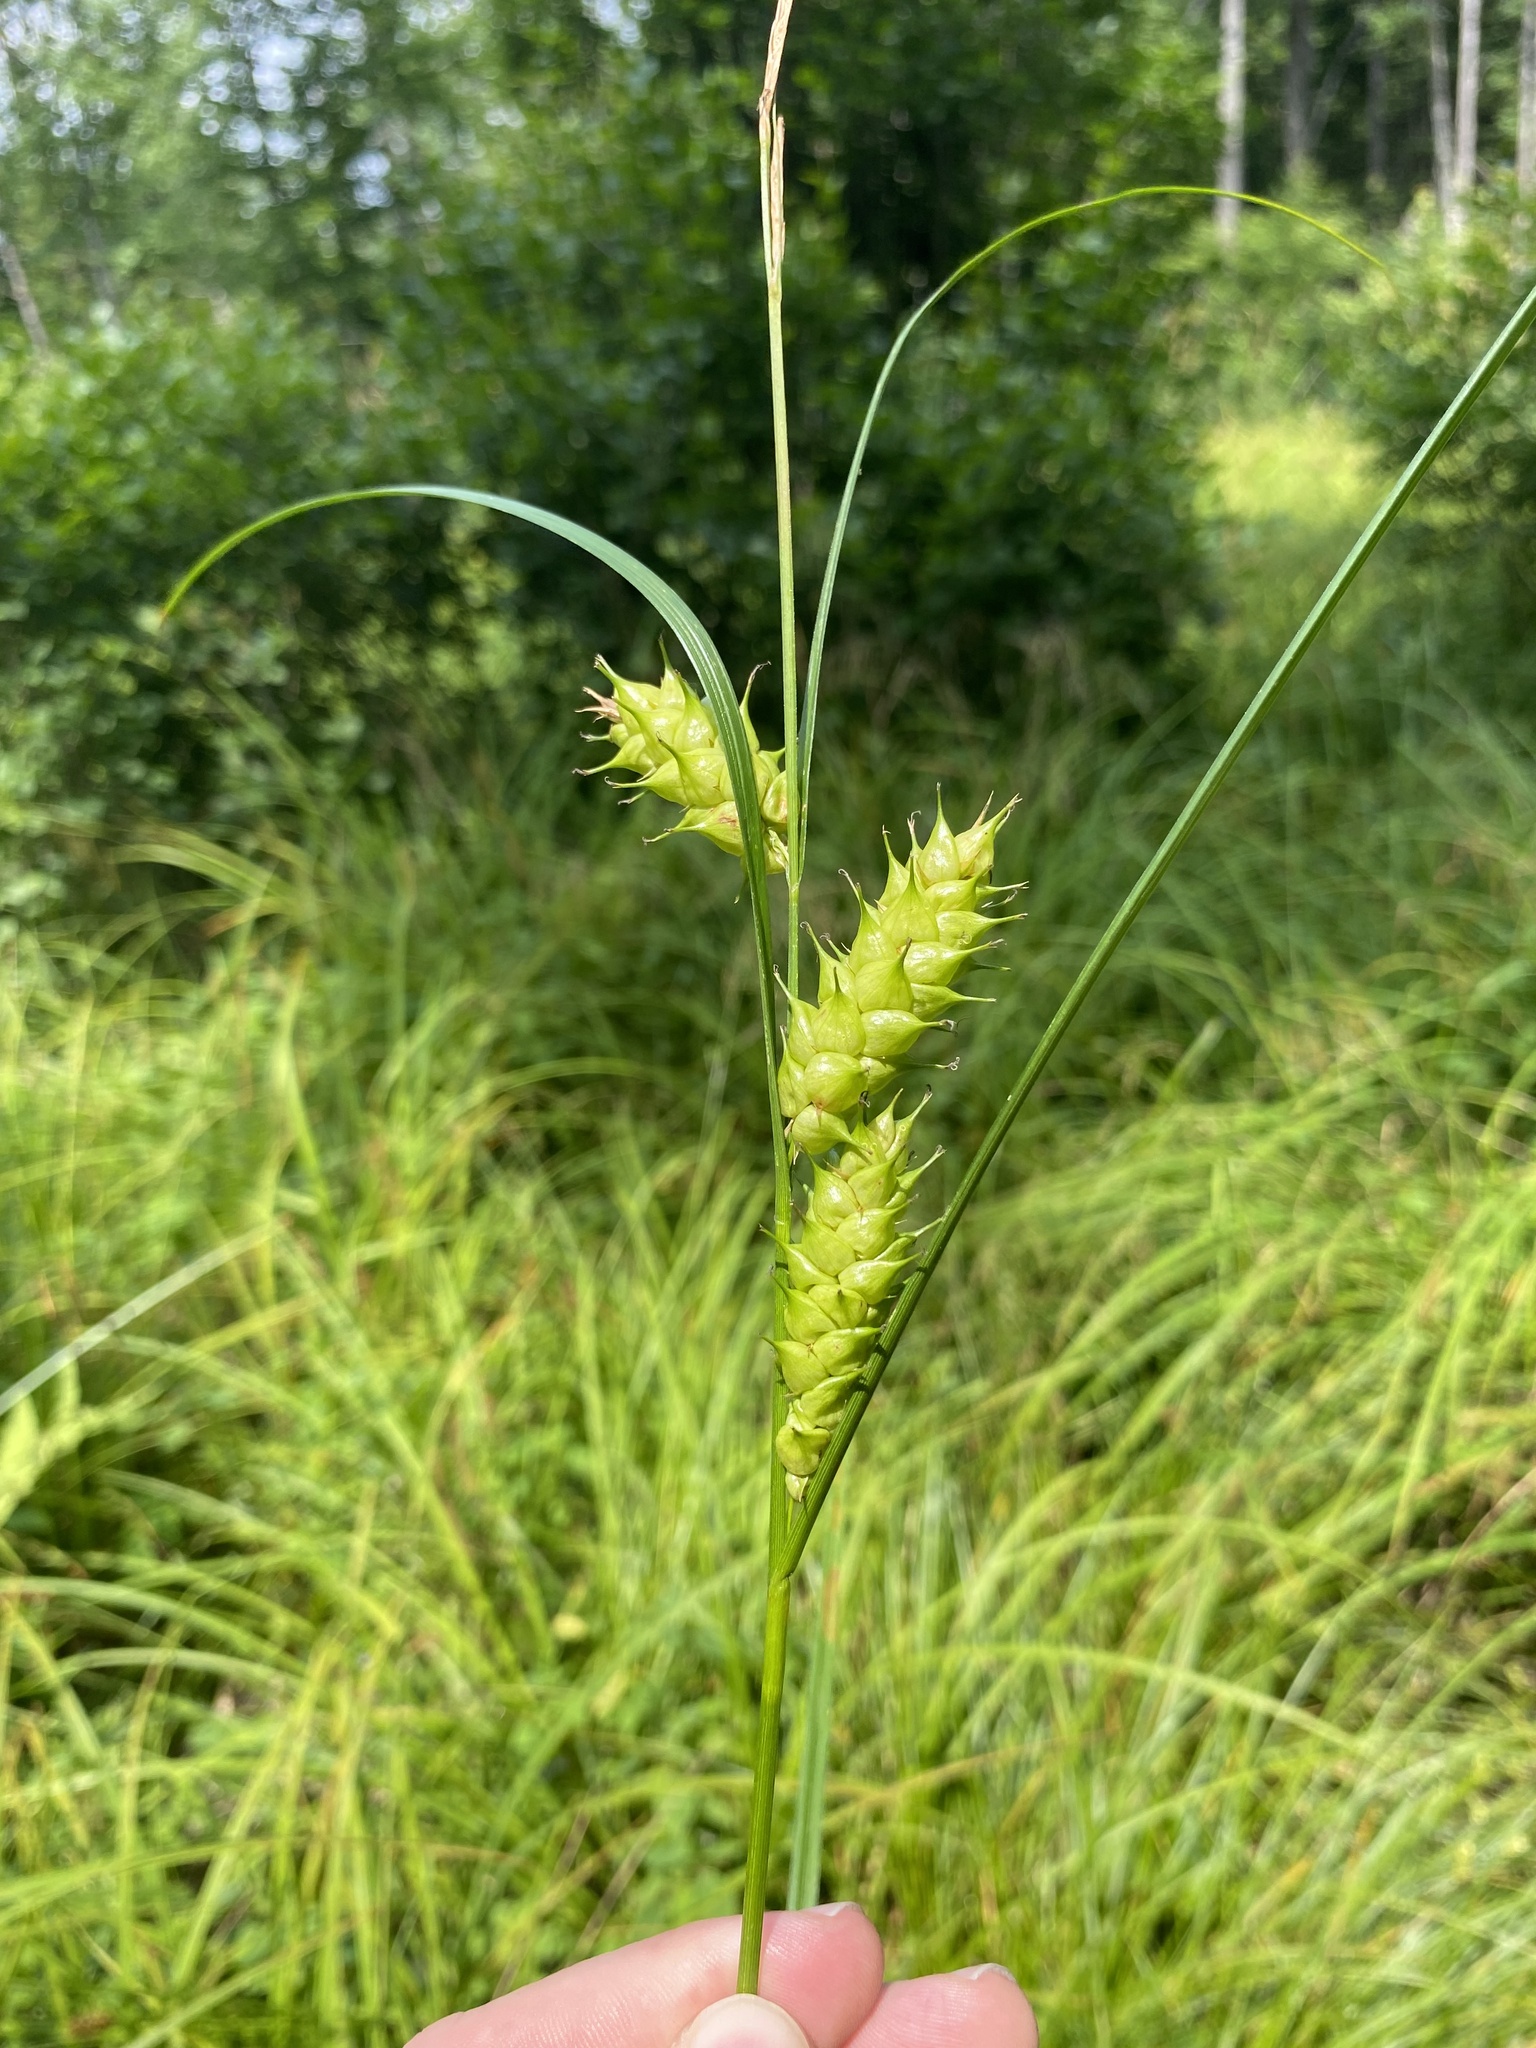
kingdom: Plantae
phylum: Tracheophyta
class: Liliopsida
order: Poales
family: Cyperaceae
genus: Carex
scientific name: Carex tuckermanii
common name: Tuckerman's sedge
